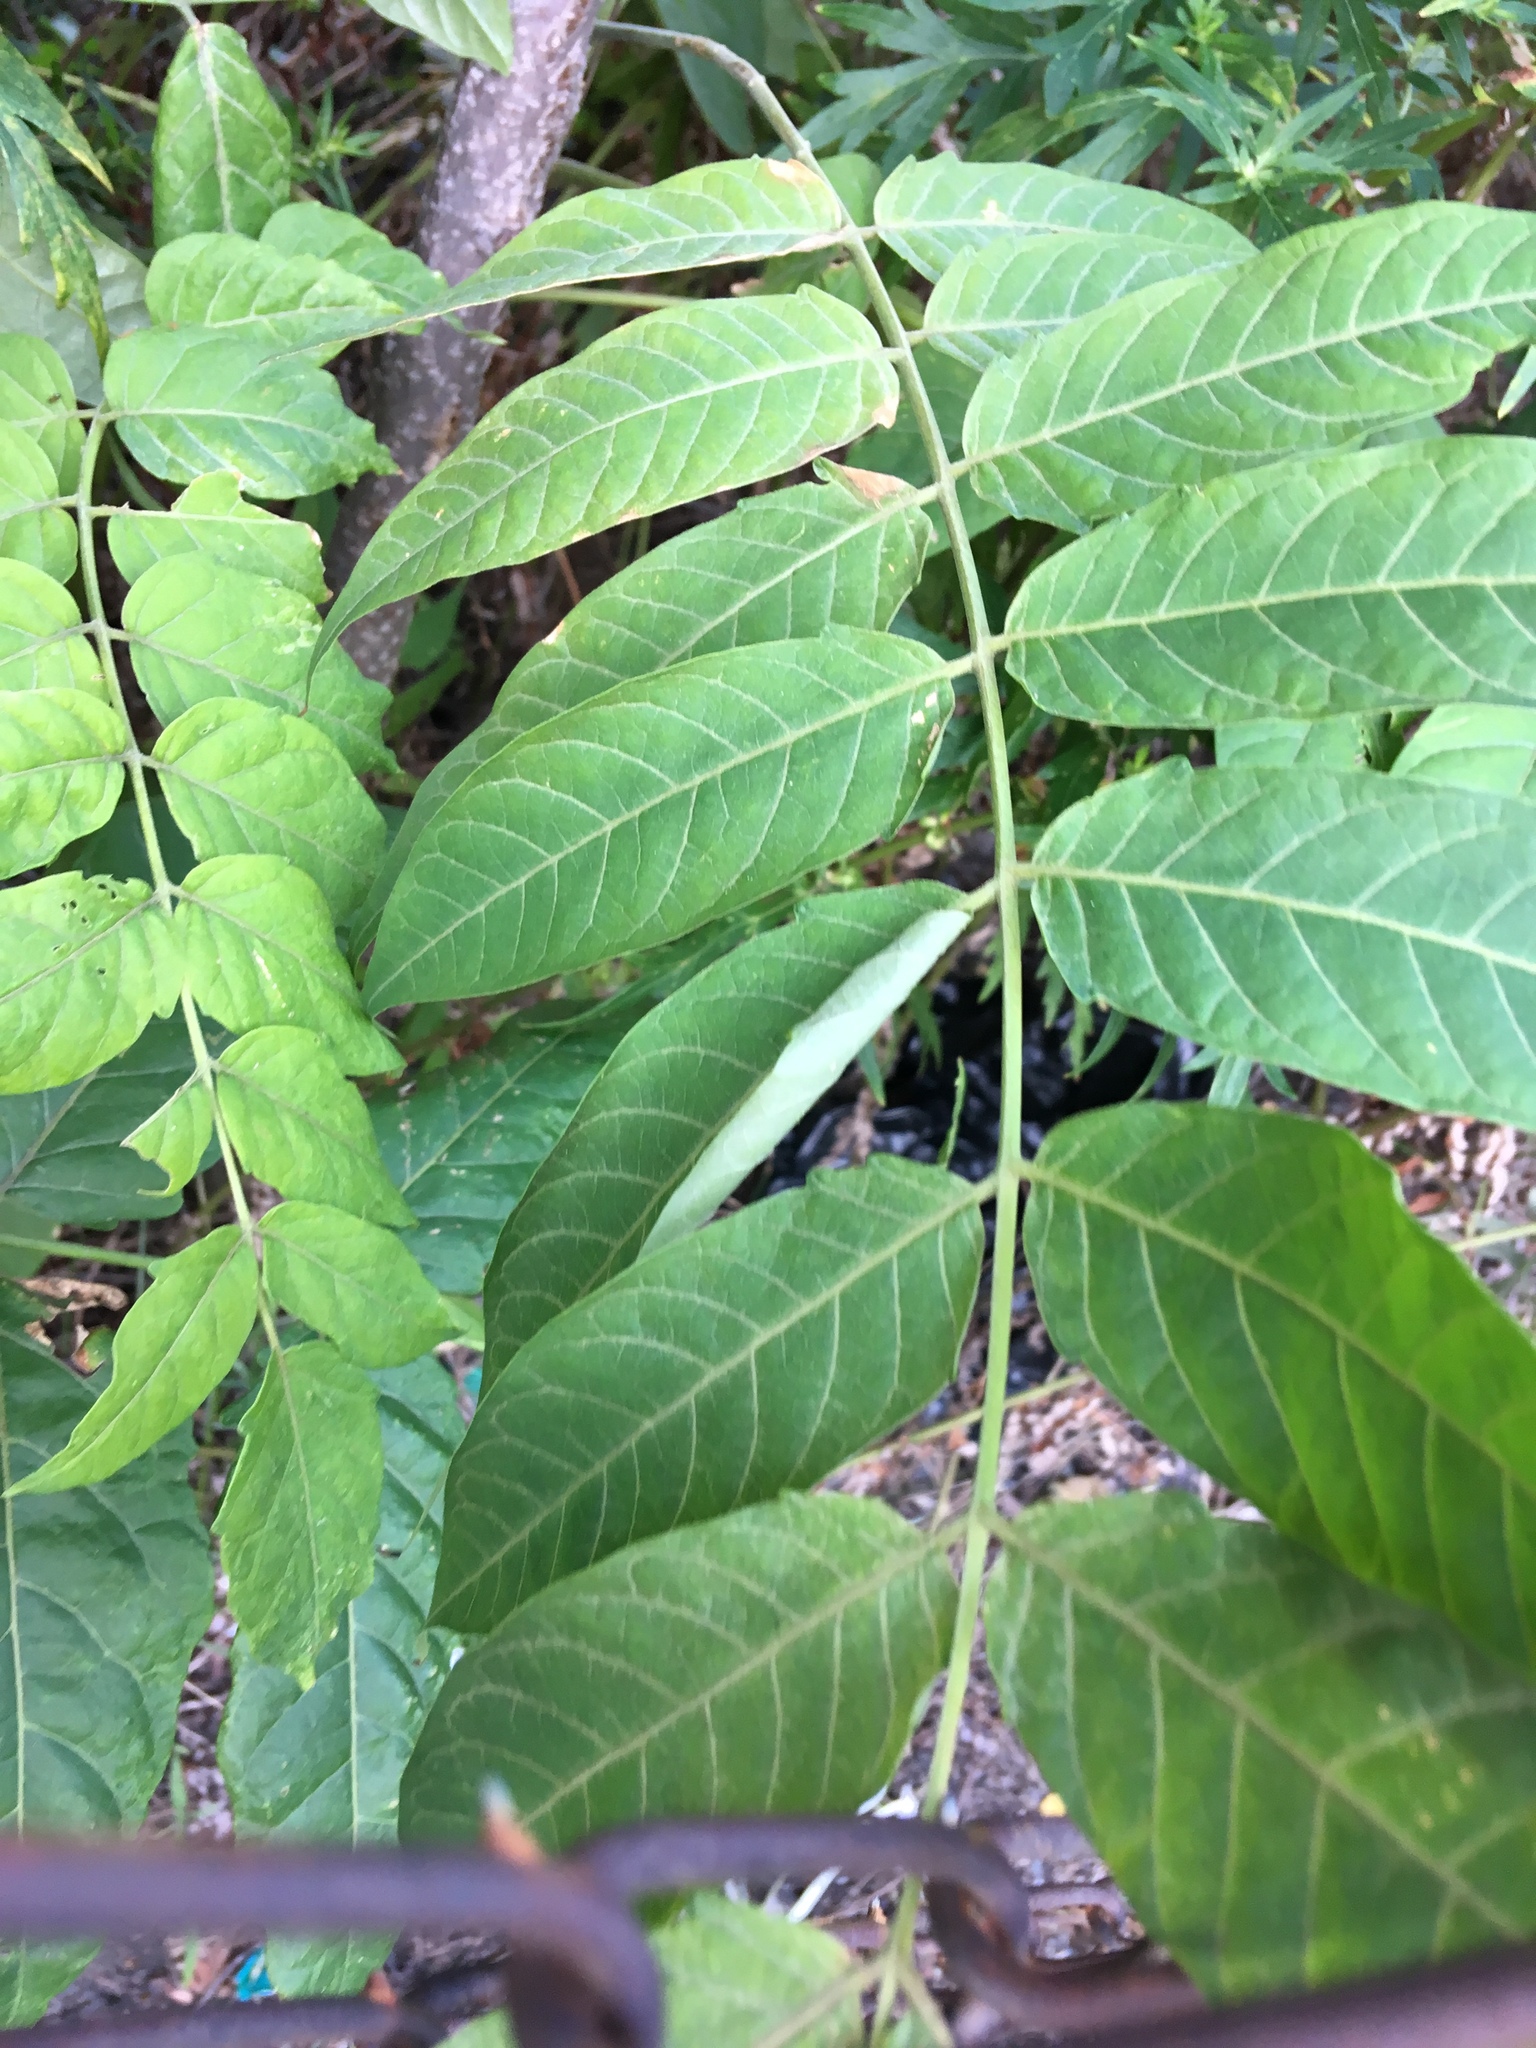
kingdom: Plantae
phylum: Tracheophyta
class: Magnoliopsida
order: Sapindales
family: Simaroubaceae
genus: Ailanthus
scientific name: Ailanthus altissima
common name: Tree-of-heaven
